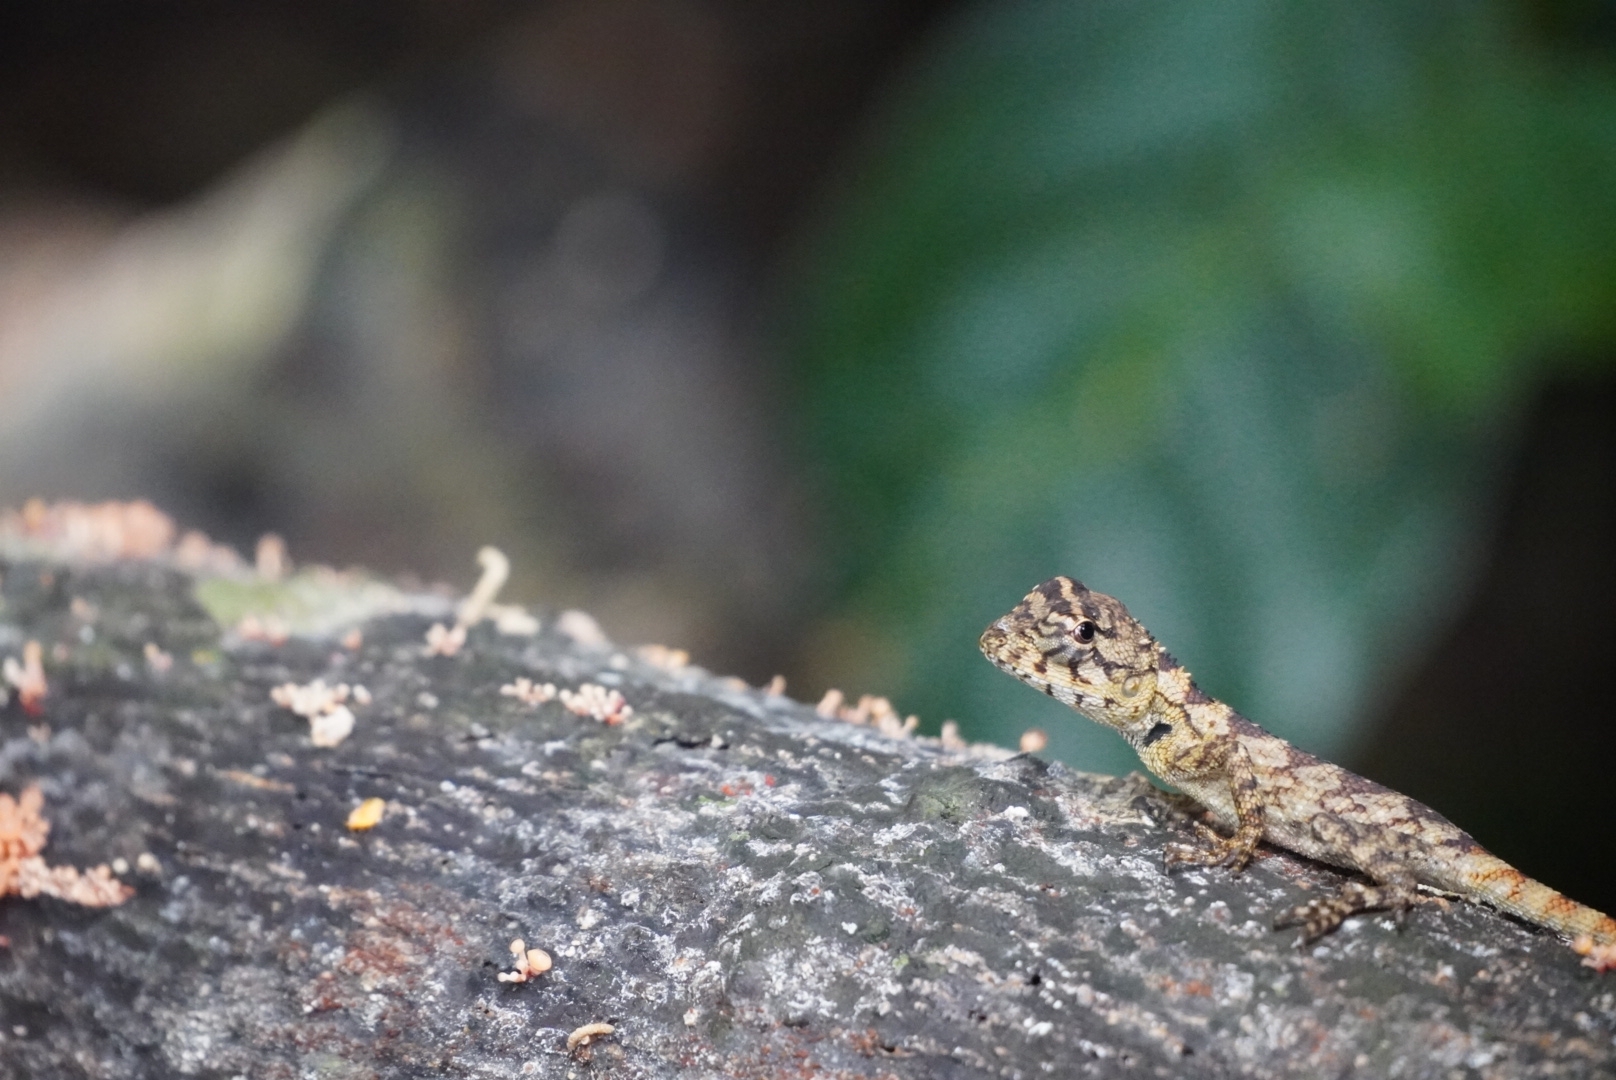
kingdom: Animalia
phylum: Chordata
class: Squamata
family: Agamidae
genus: Calotes
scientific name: Calotes bachae
